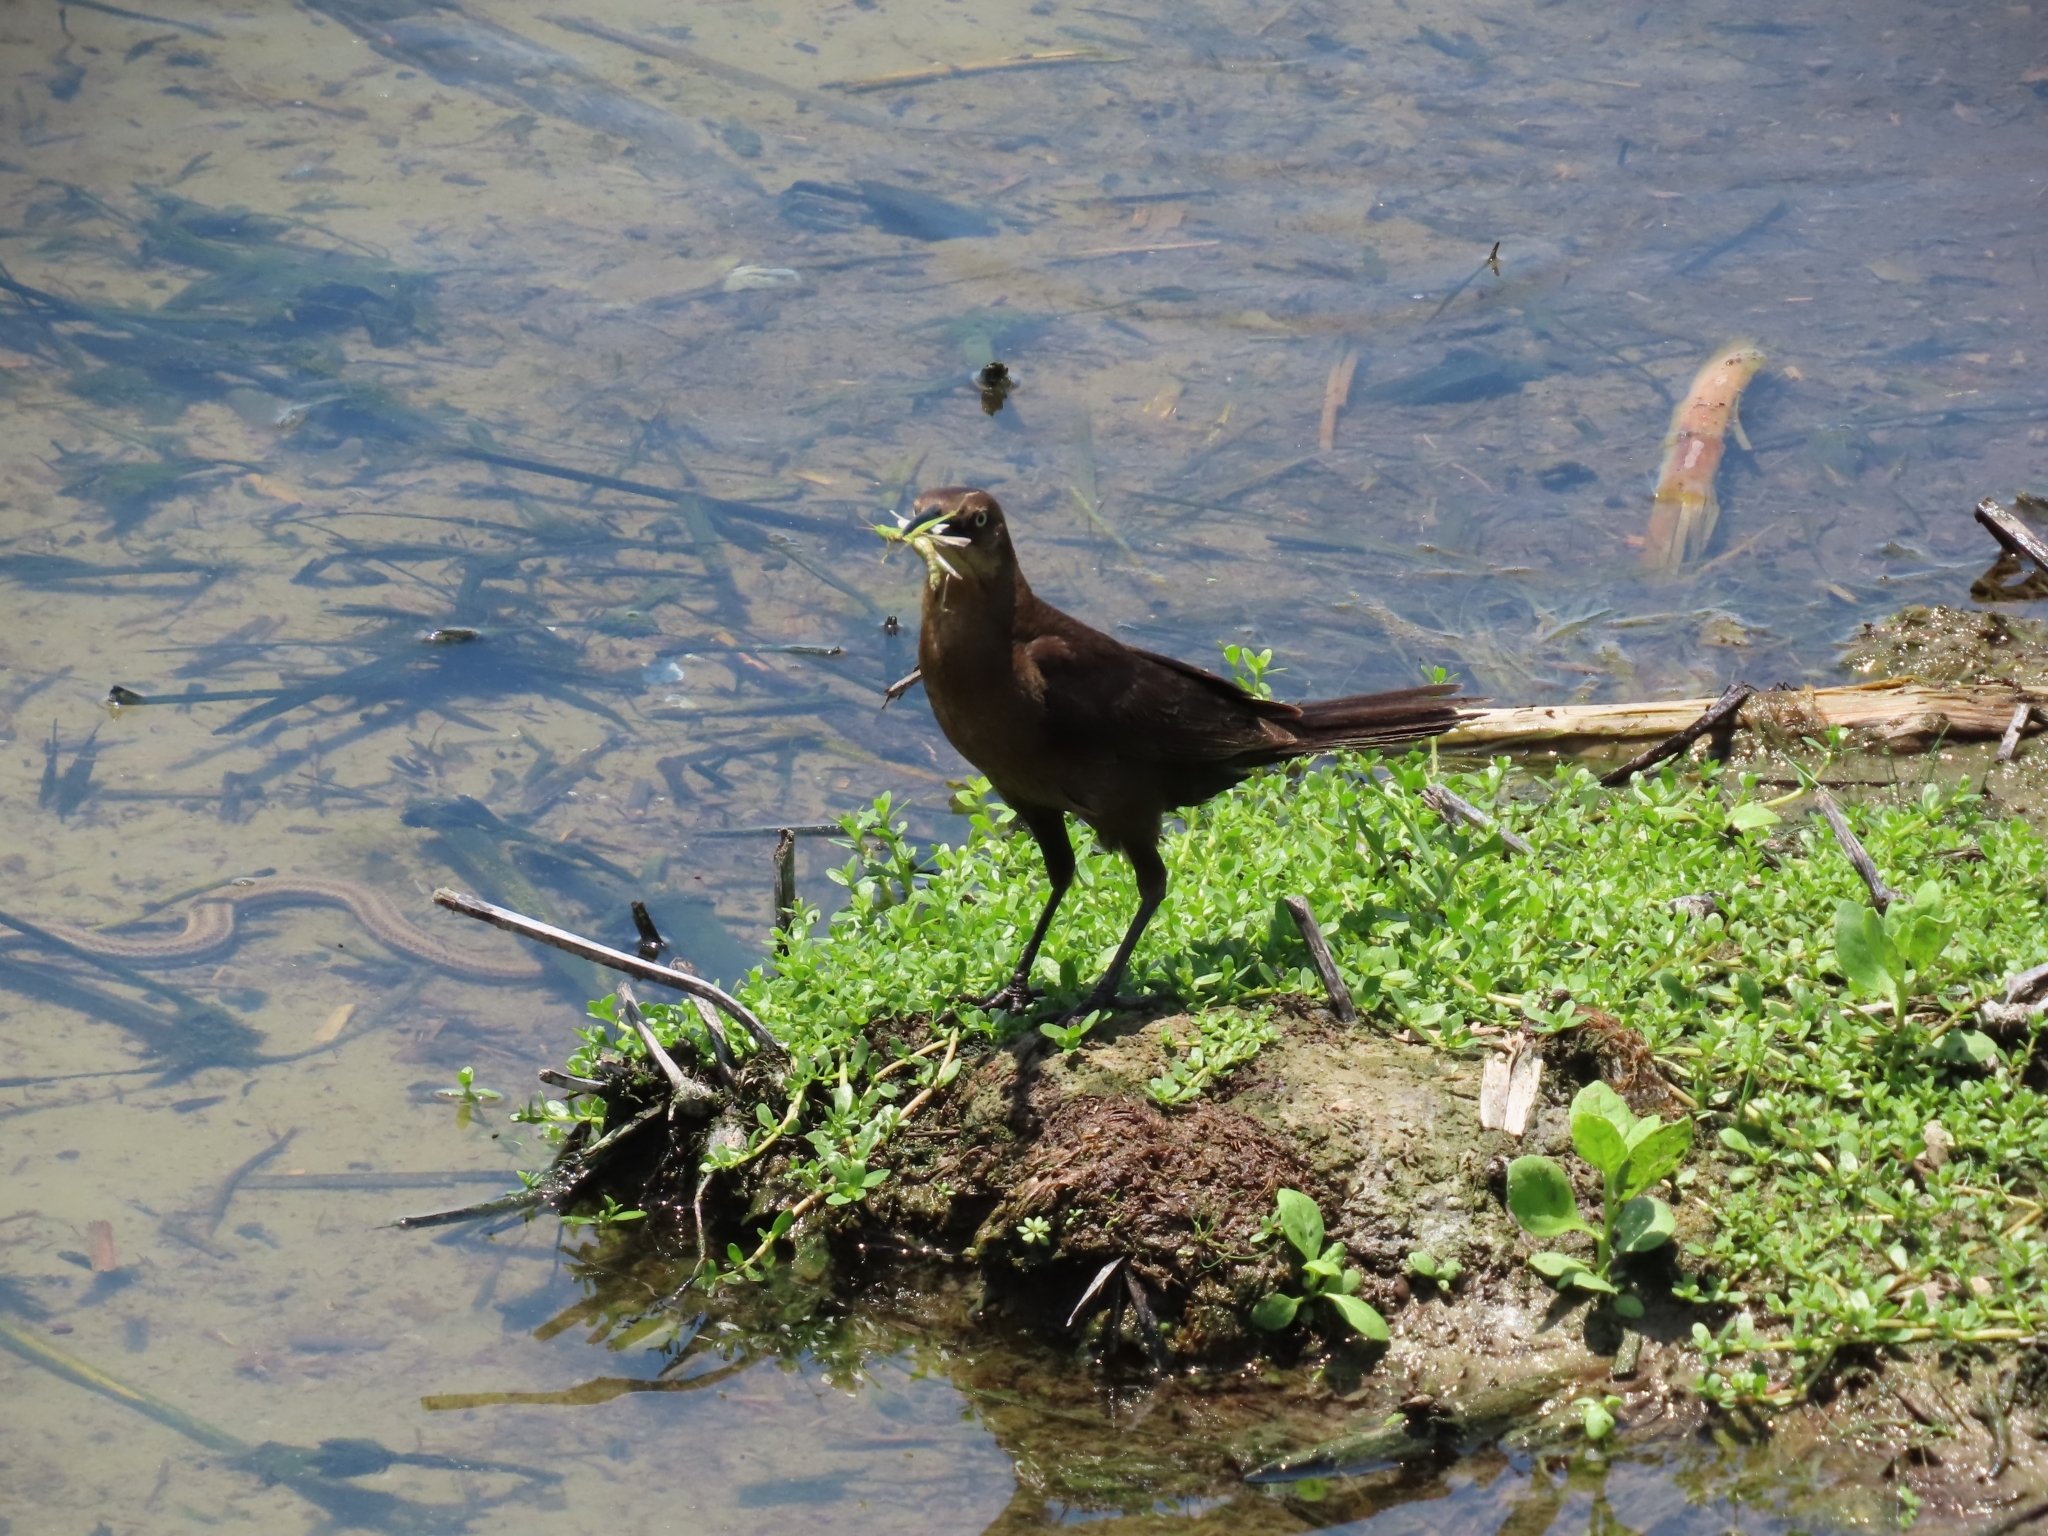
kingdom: Animalia
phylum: Chordata
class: Aves
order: Passeriformes
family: Icteridae
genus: Quiscalus
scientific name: Quiscalus mexicanus
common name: Great-tailed grackle
